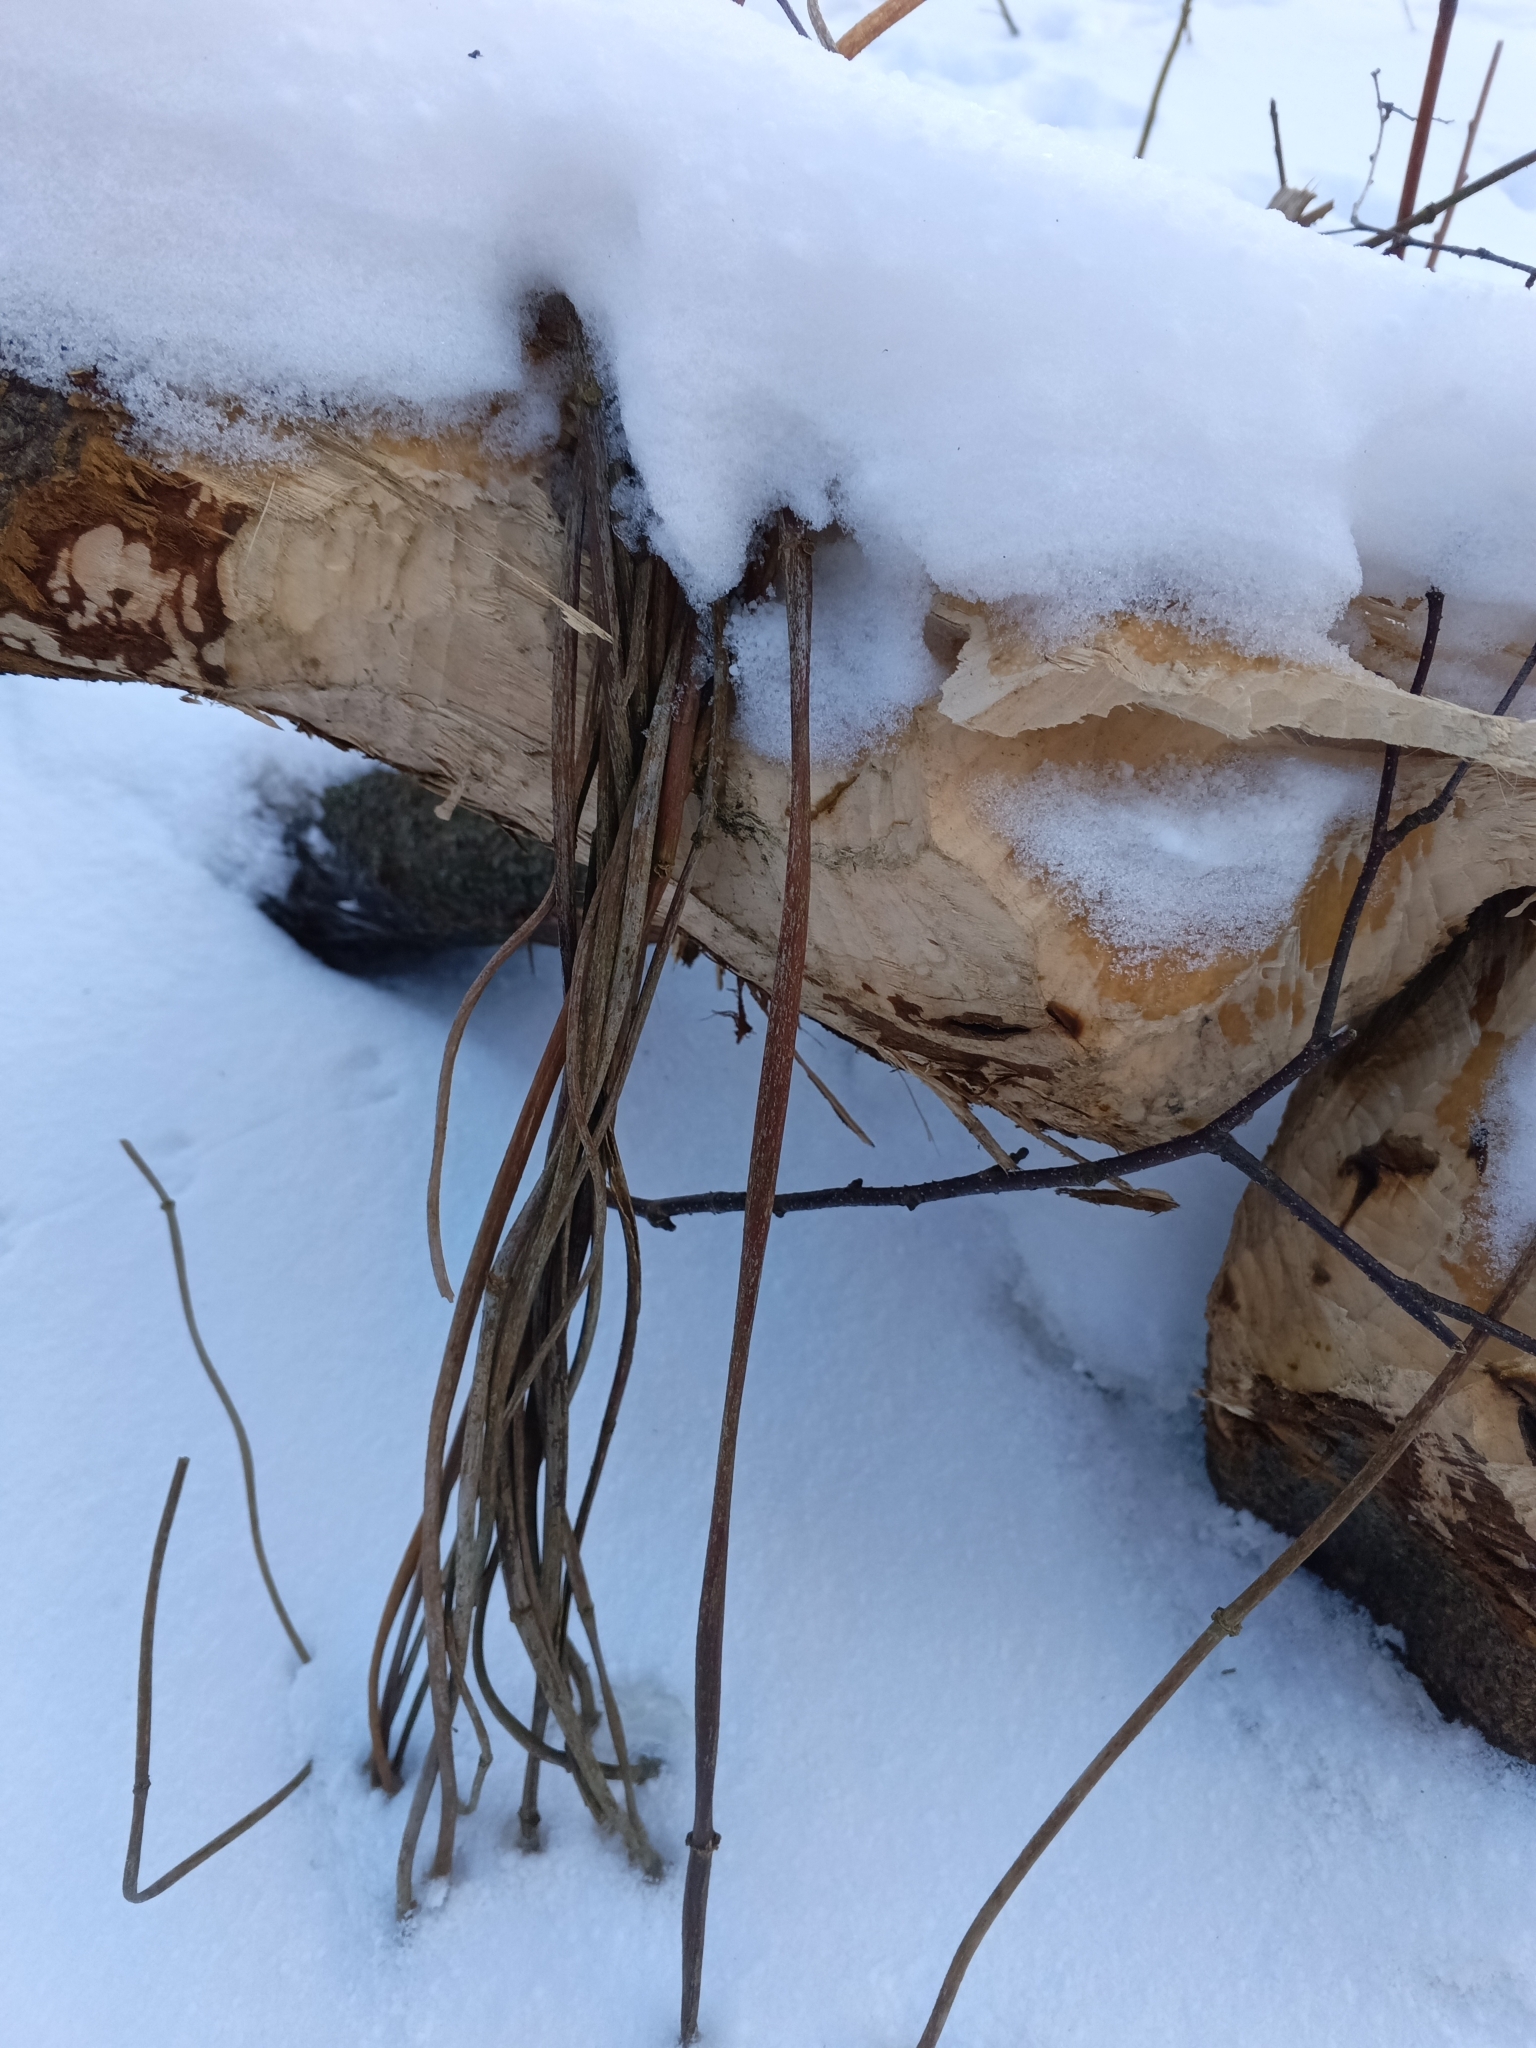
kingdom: Animalia
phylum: Chordata
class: Mammalia
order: Rodentia
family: Castoridae
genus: Castor
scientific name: Castor fiber
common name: Eurasian beaver
